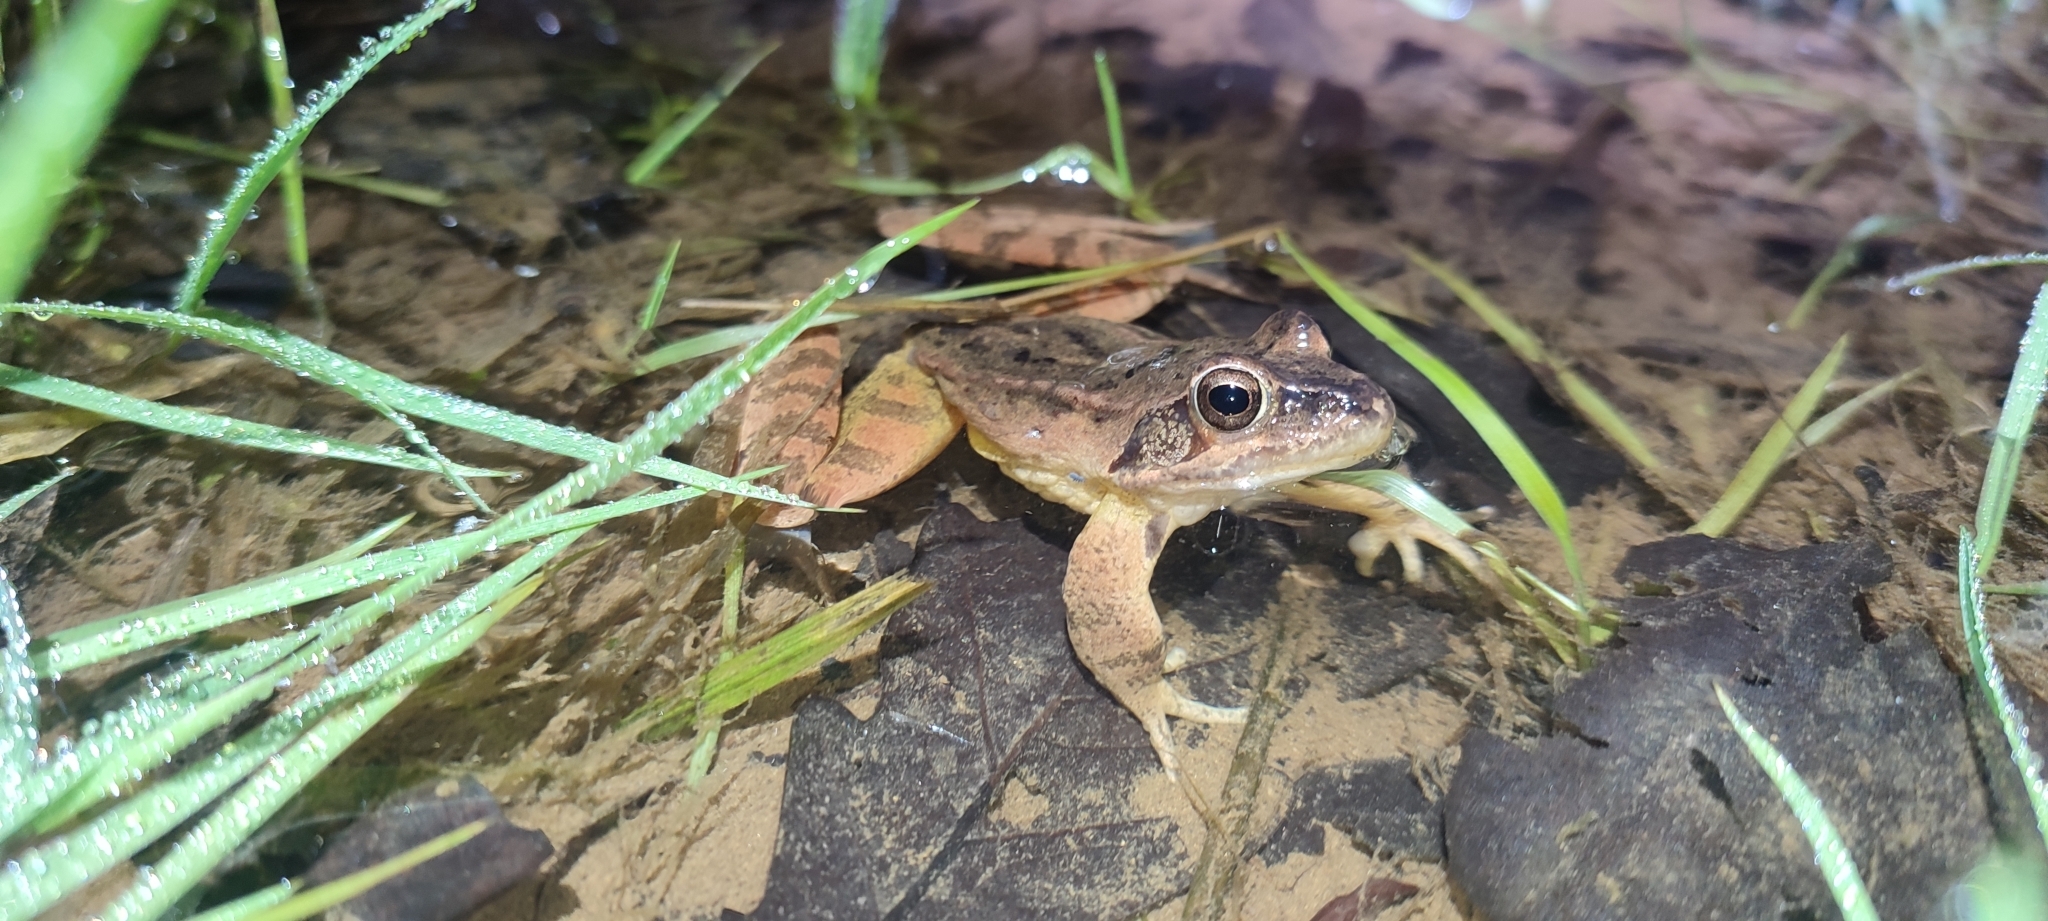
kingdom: Animalia
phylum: Chordata
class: Amphibia
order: Anura
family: Ranidae
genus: Rana
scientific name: Rana dalmatina
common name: Agile frog
